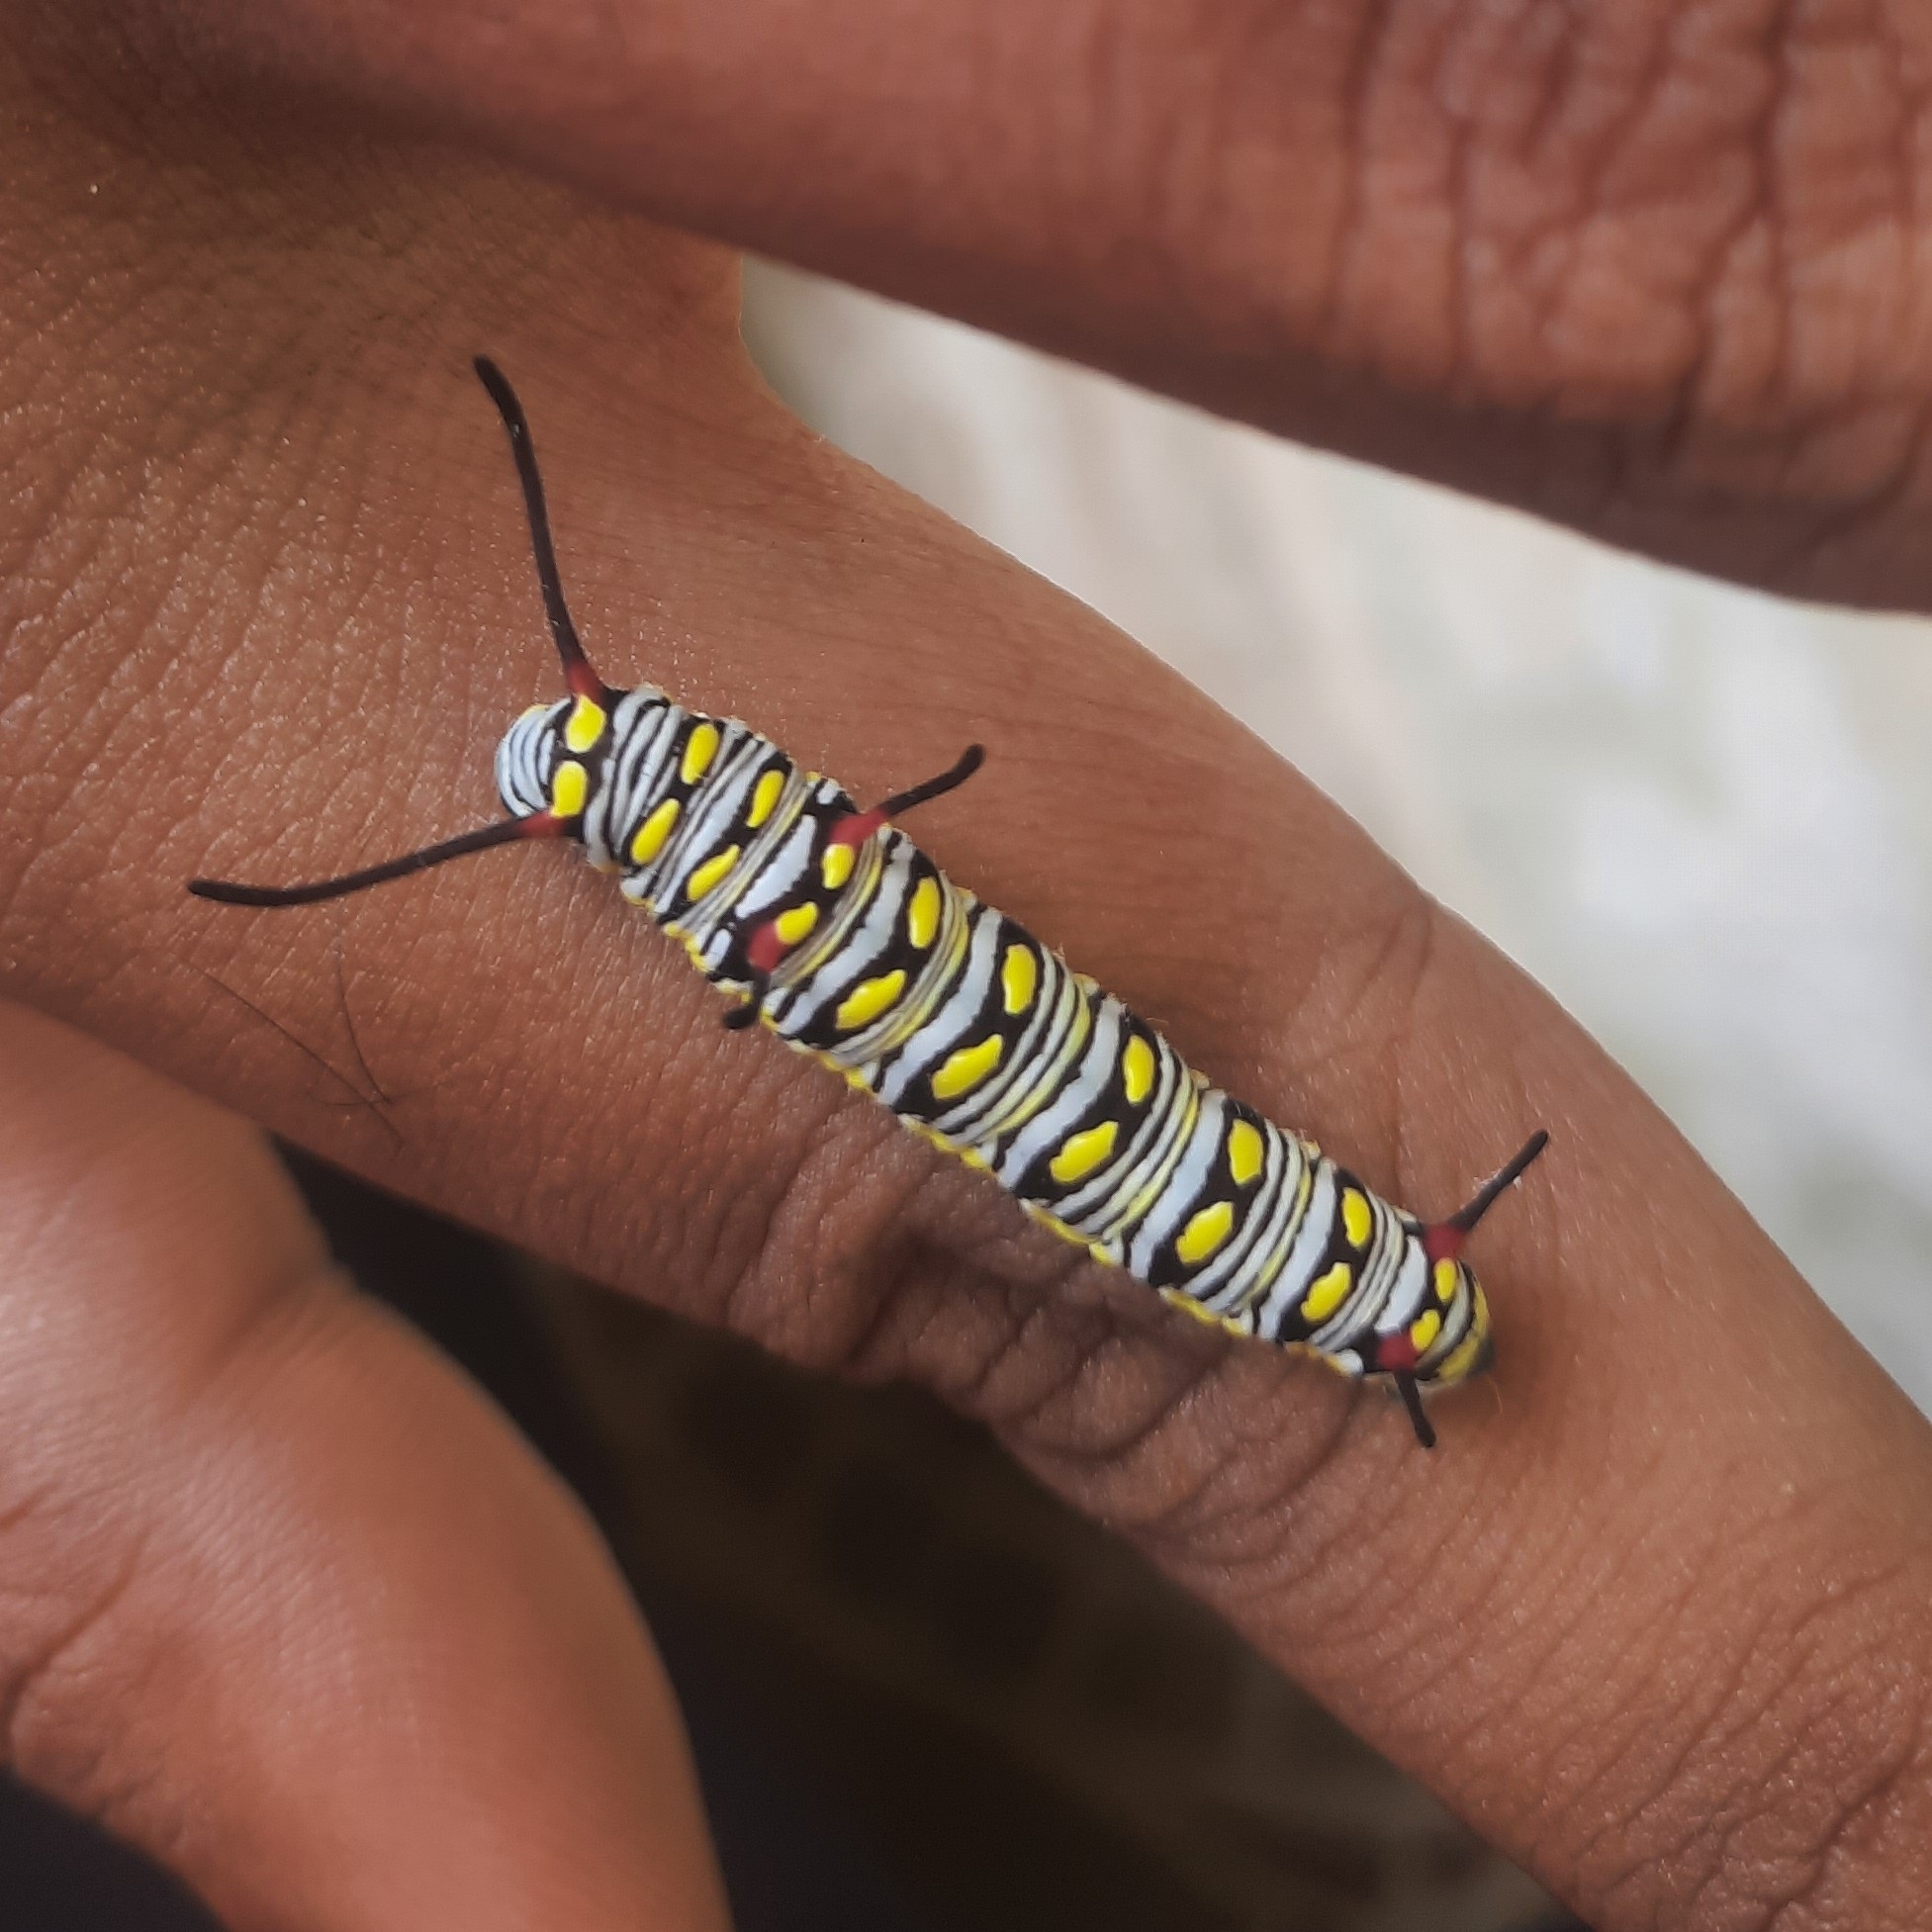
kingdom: Animalia
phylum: Arthropoda
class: Insecta
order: Lepidoptera
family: Nymphalidae
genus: Danaus
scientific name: Danaus chrysippus
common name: Plain tiger
